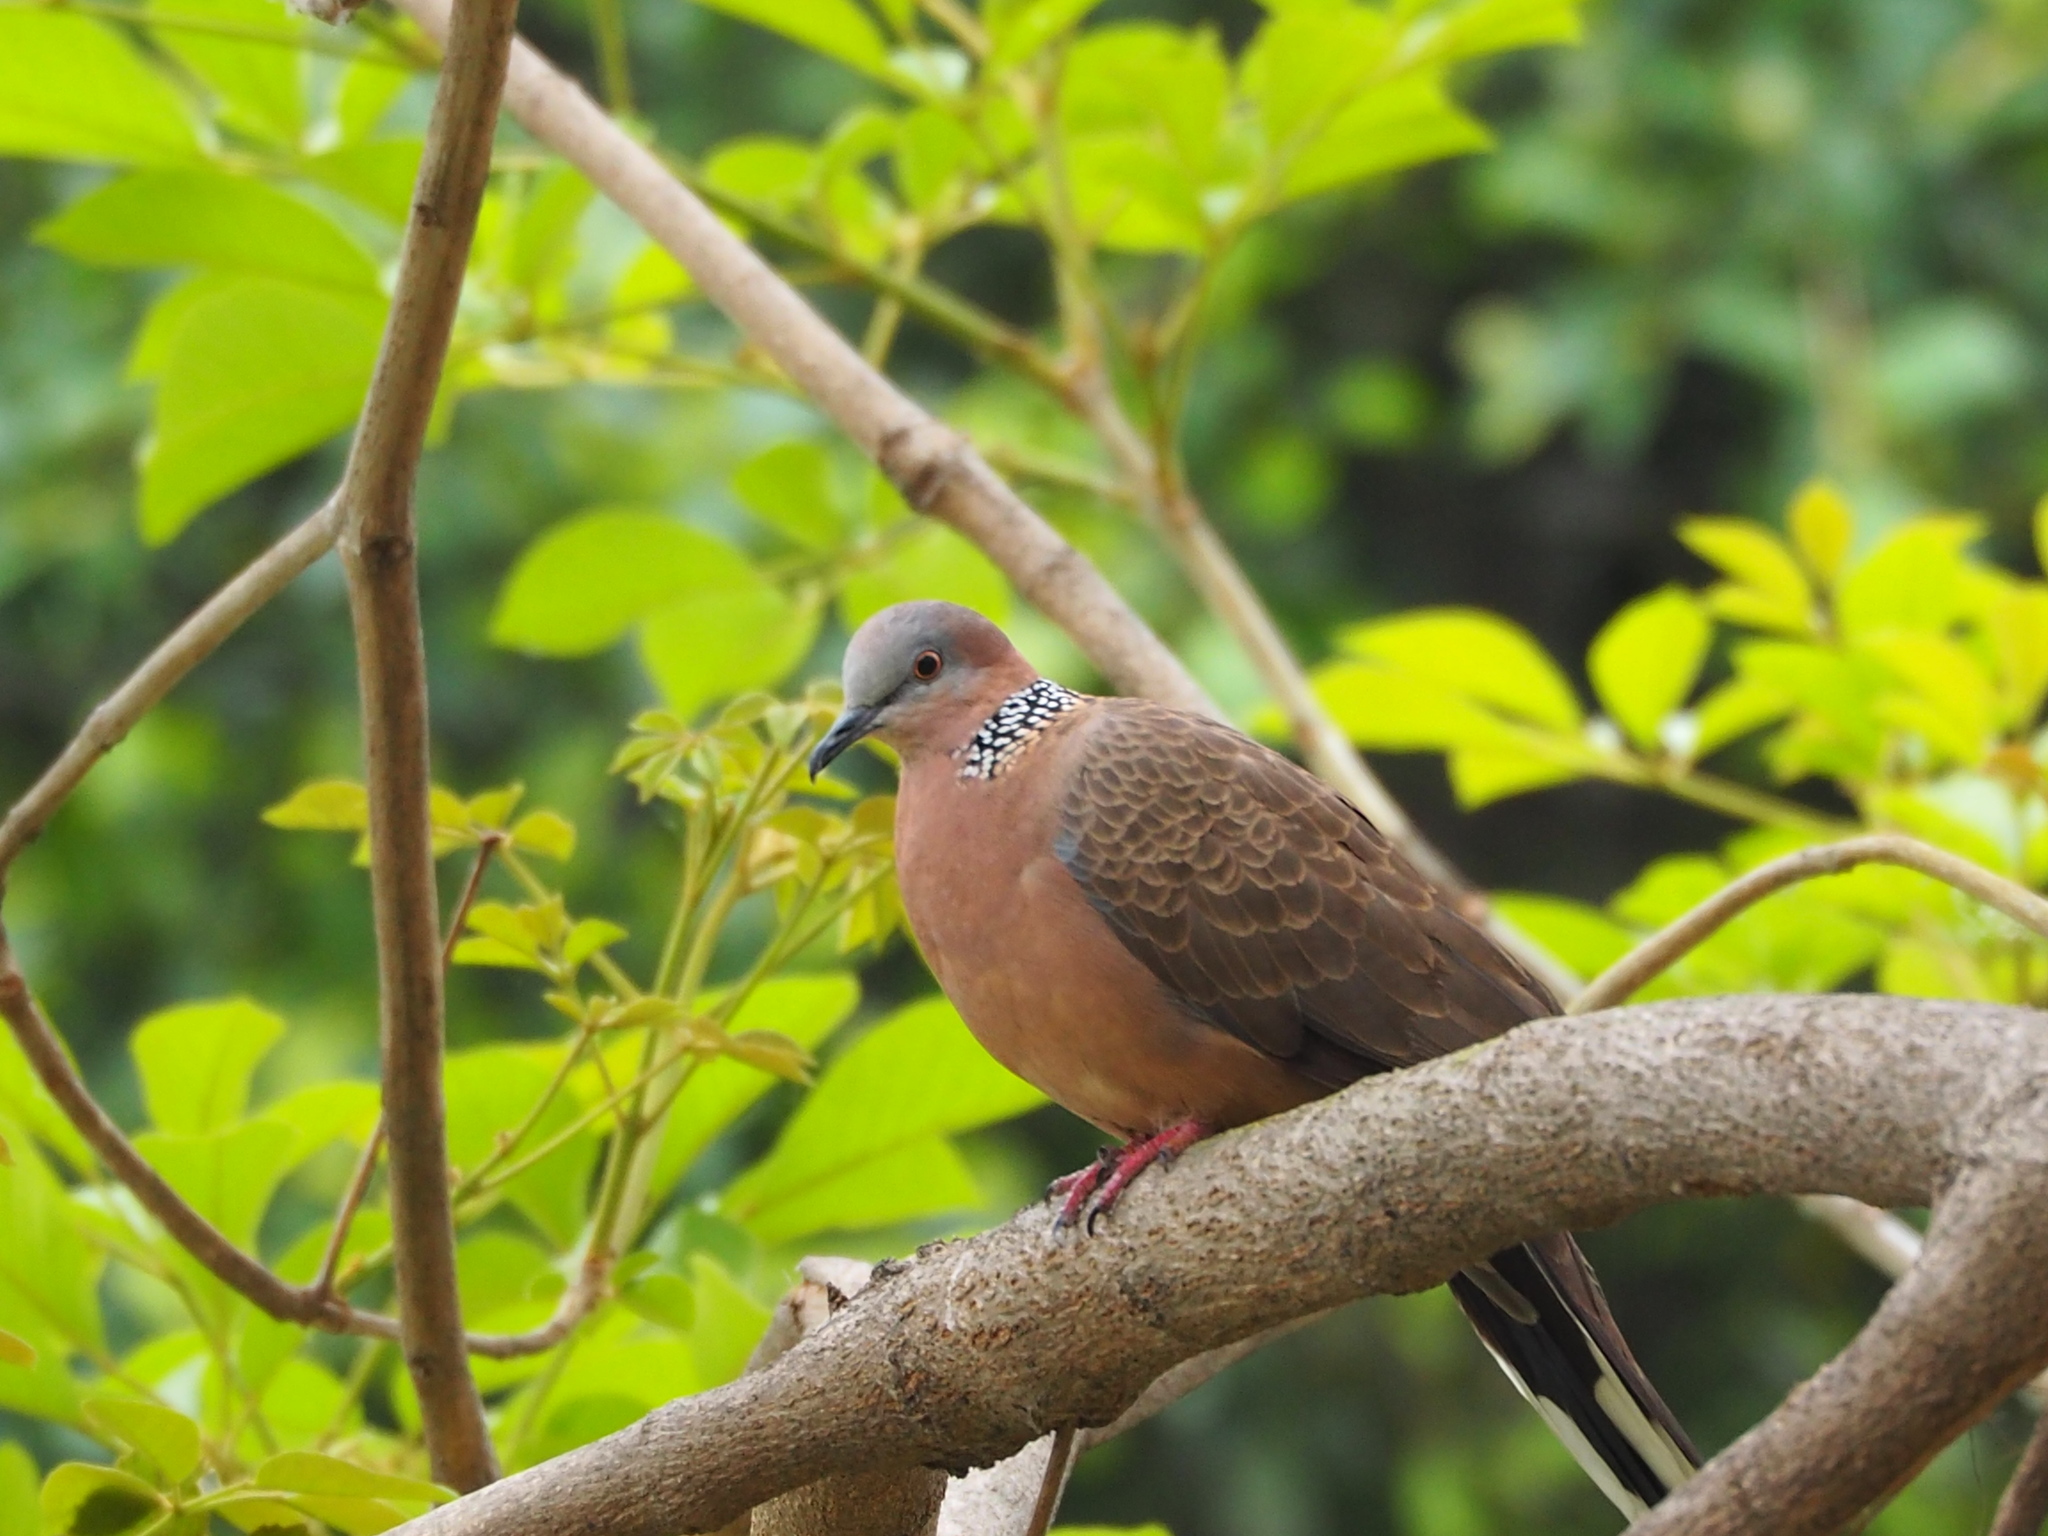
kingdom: Animalia
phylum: Chordata
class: Aves
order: Columbiformes
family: Columbidae
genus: Spilopelia
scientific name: Spilopelia chinensis
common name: Spotted dove
